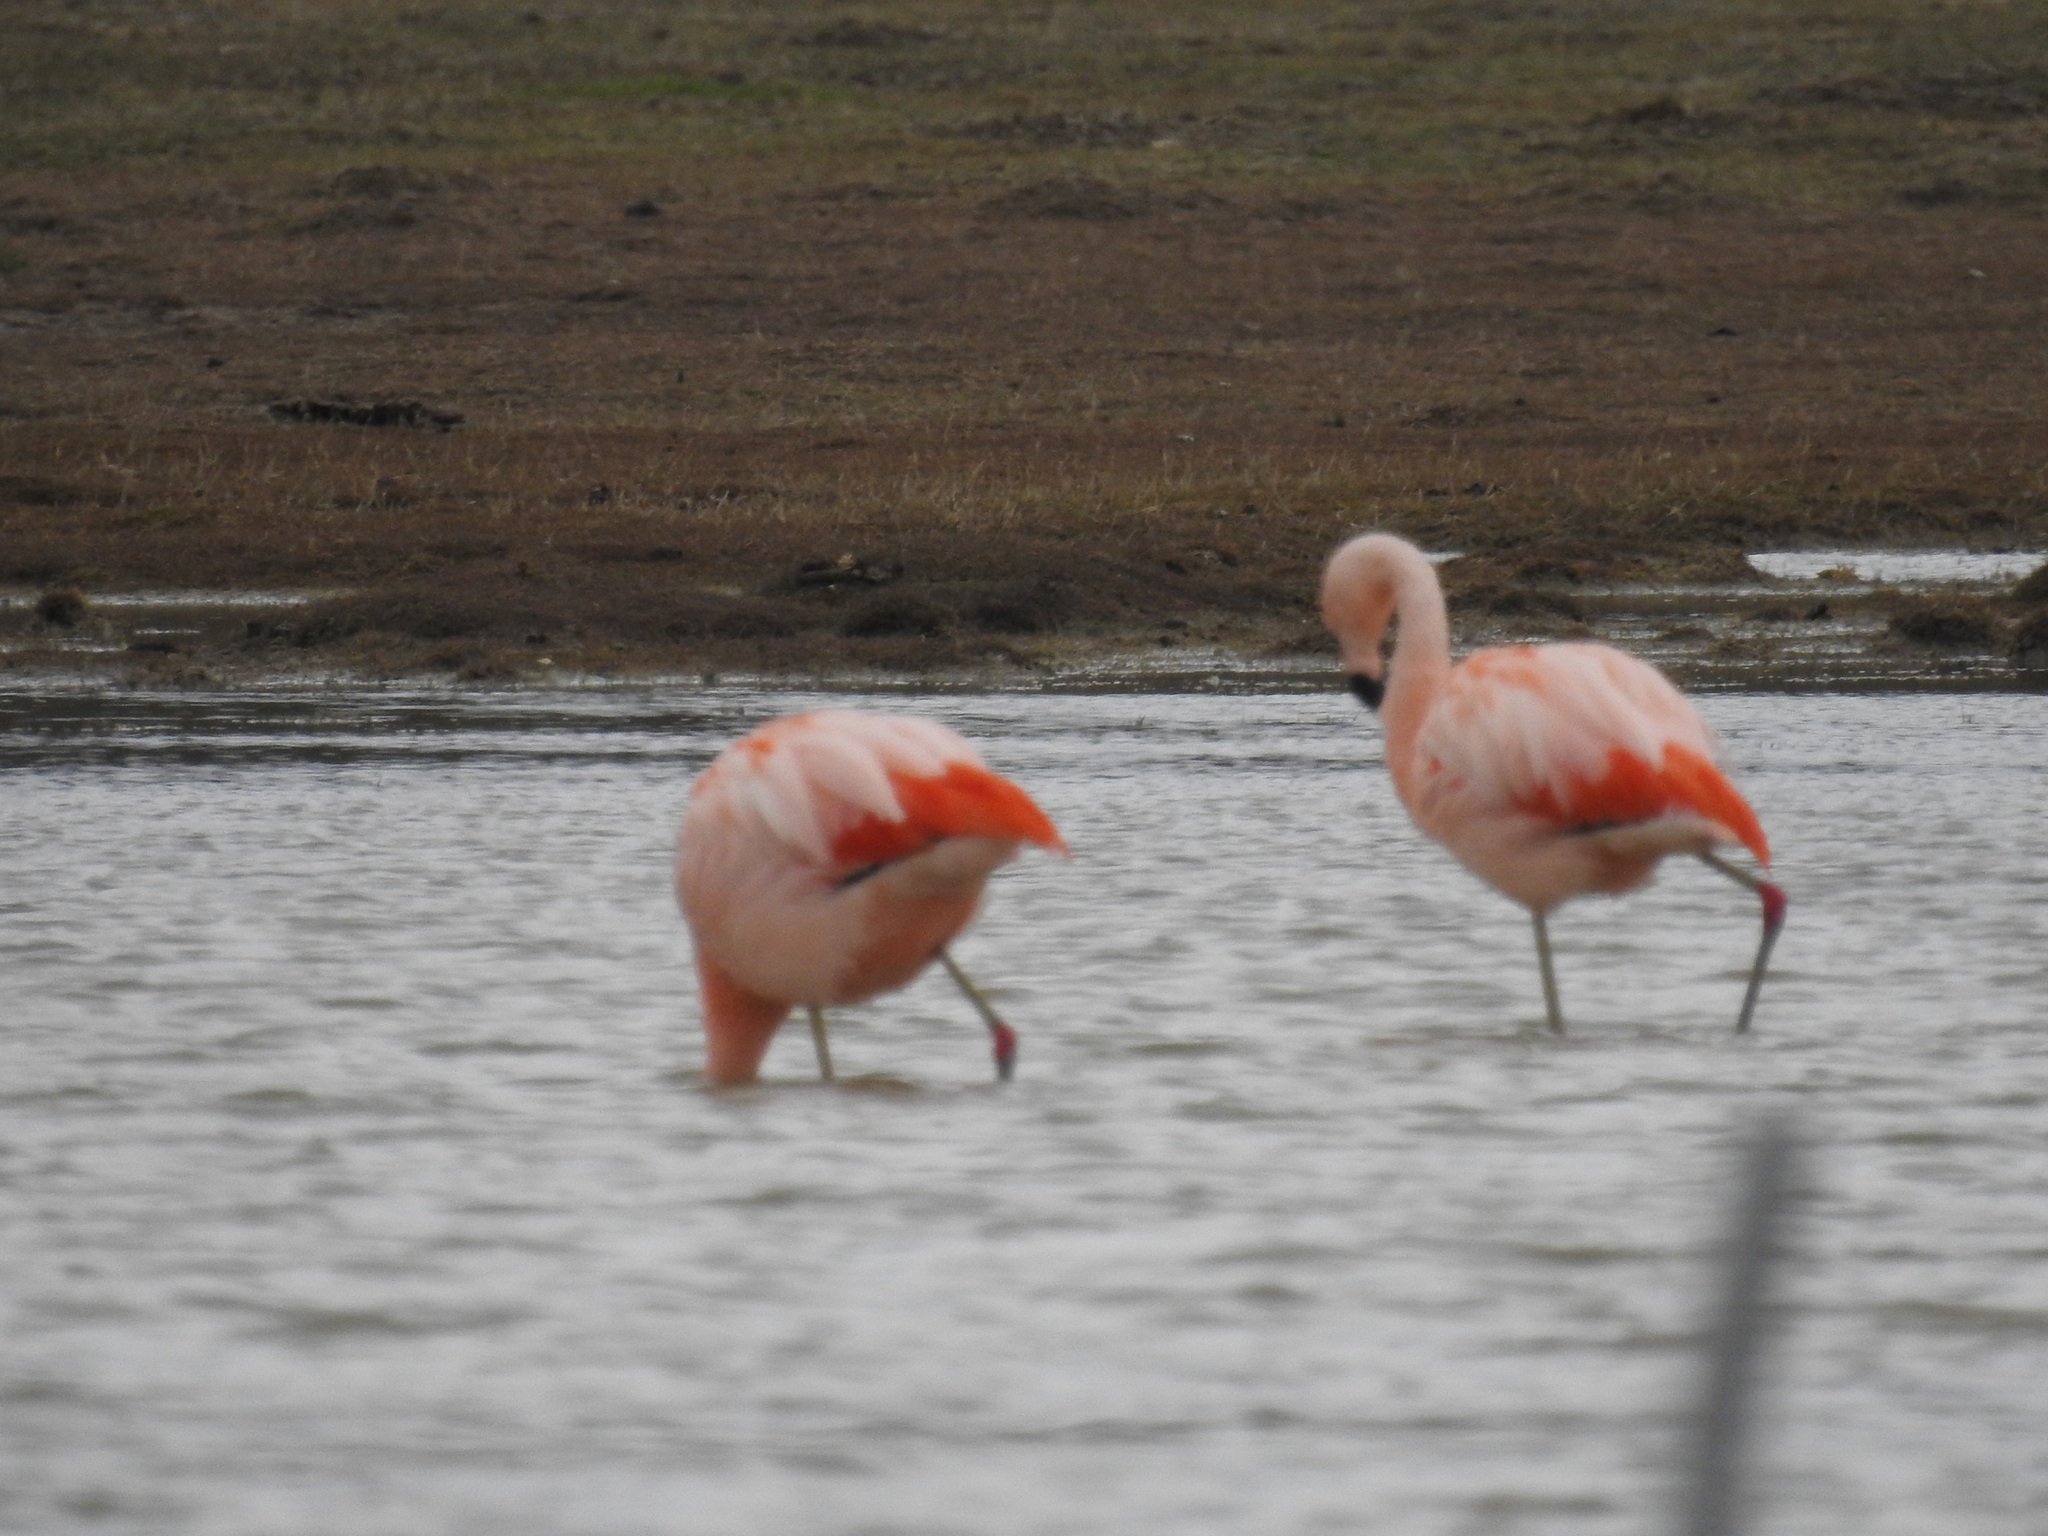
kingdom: Animalia
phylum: Chordata
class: Aves
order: Phoenicopteriformes
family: Phoenicopteridae
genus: Phoenicopterus
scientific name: Phoenicopterus chilensis
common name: Chilean flamingo
